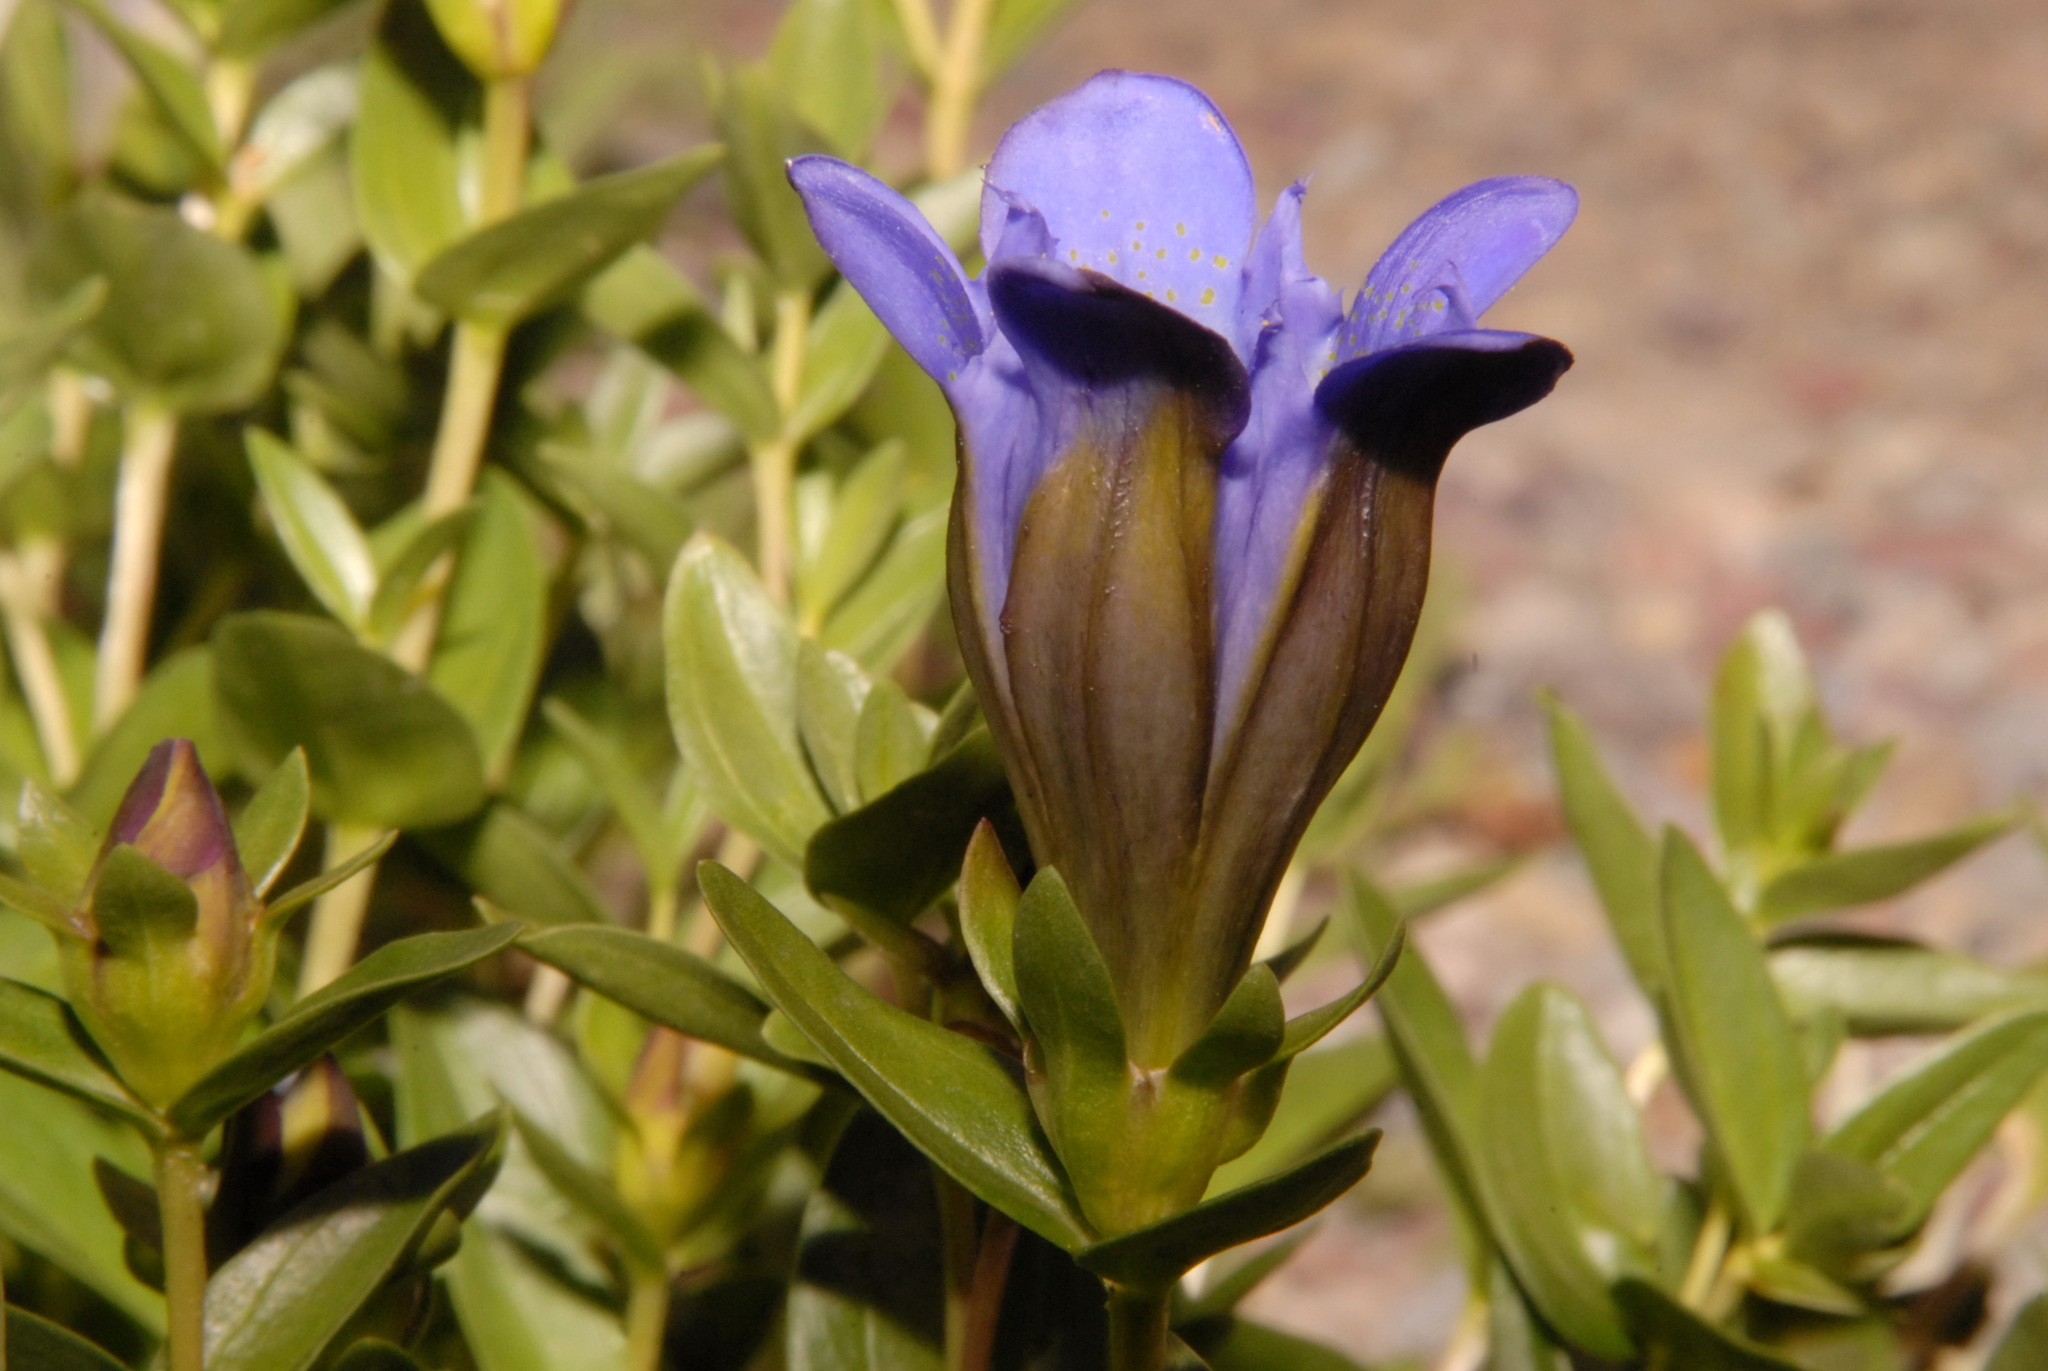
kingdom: Plantae
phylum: Tracheophyta
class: Magnoliopsida
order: Gentianales
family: Gentianaceae
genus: Gentiana
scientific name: Gentiana calycosa
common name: Rainier pleated gentian
